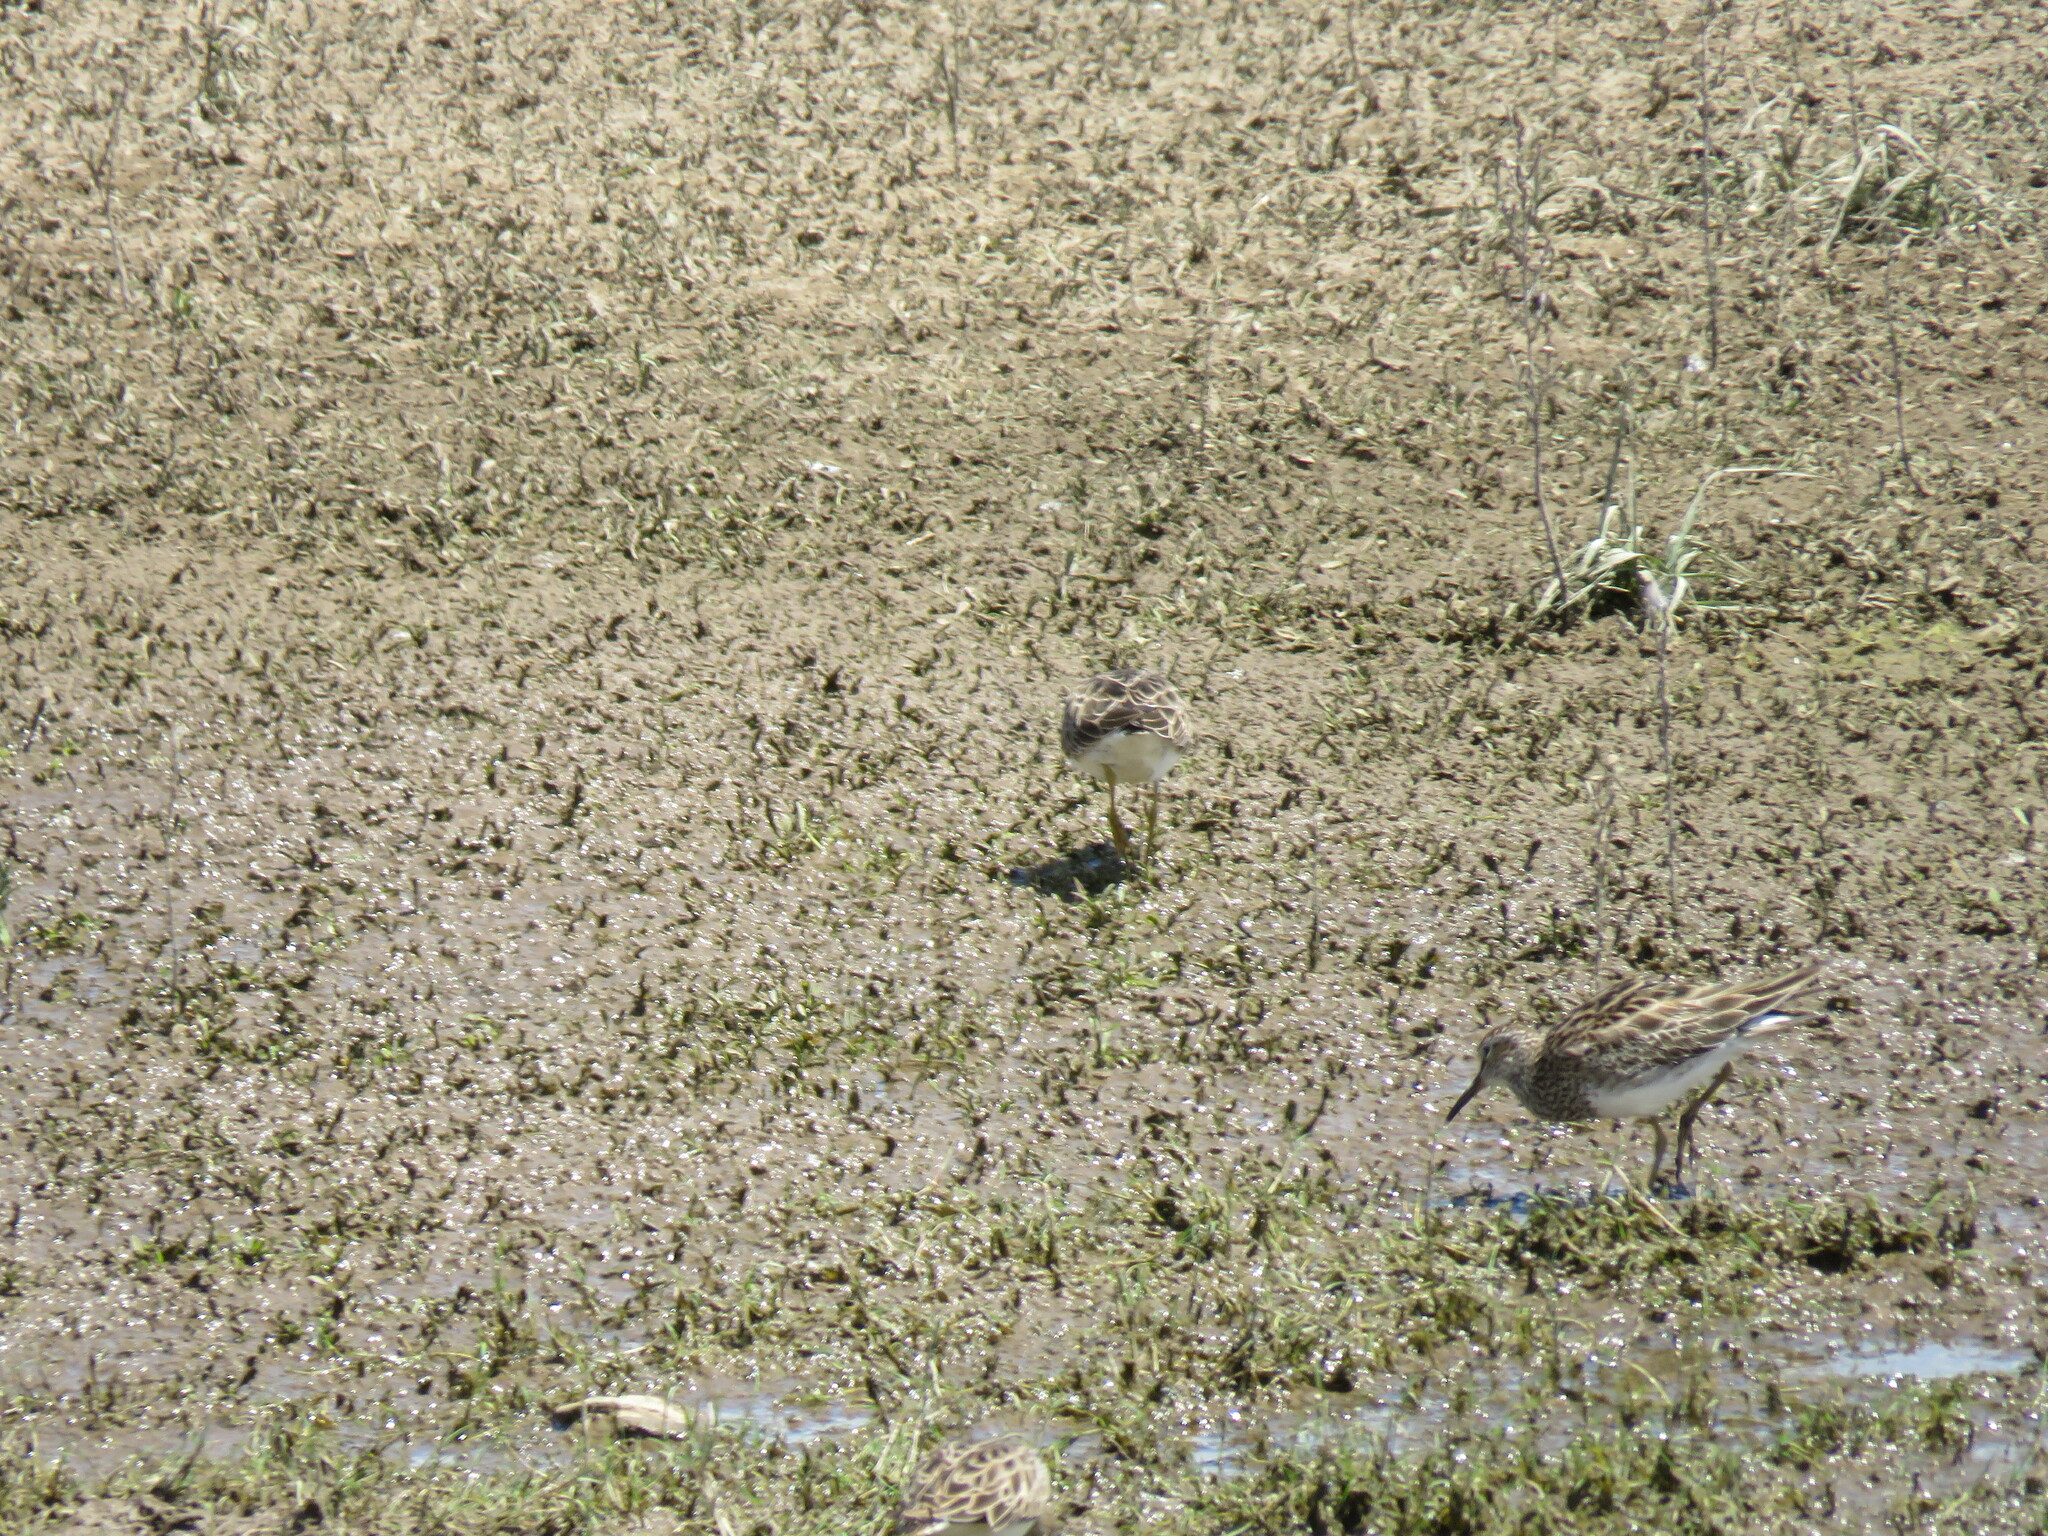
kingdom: Animalia
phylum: Chordata
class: Aves
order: Charadriiformes
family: Scolopacidae
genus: Calidris
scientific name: Calidris melanotos
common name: Pectoral sandpiper
